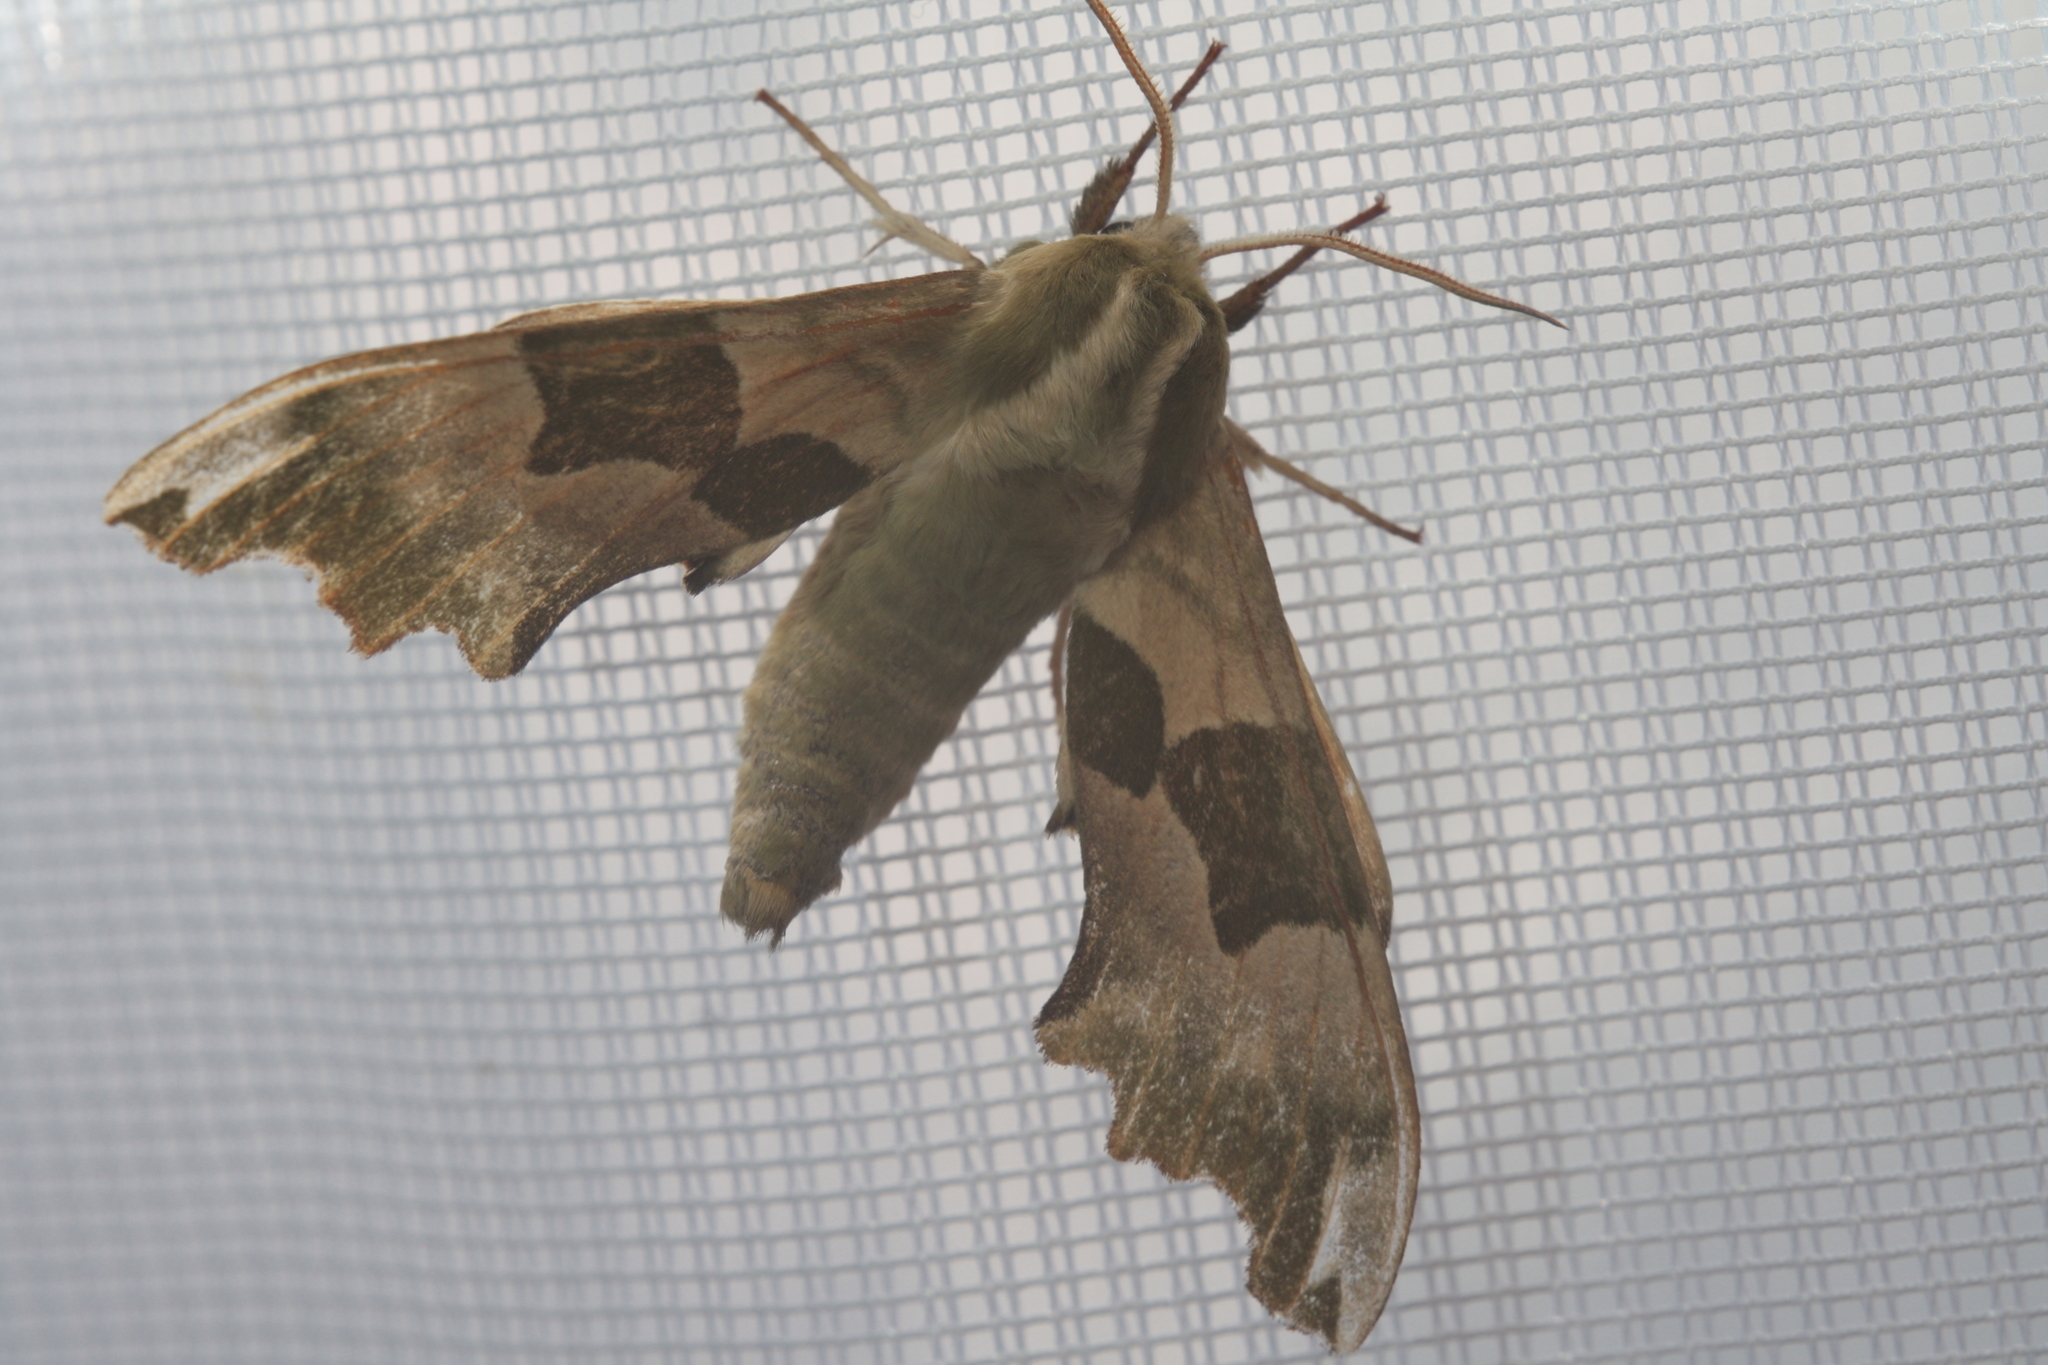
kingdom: Animalia
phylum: Arthropoda
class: Insecta
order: Lepidoptera
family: Sphingidae
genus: Mimas
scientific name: Mimas tiliae
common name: Lime hawk-moth
